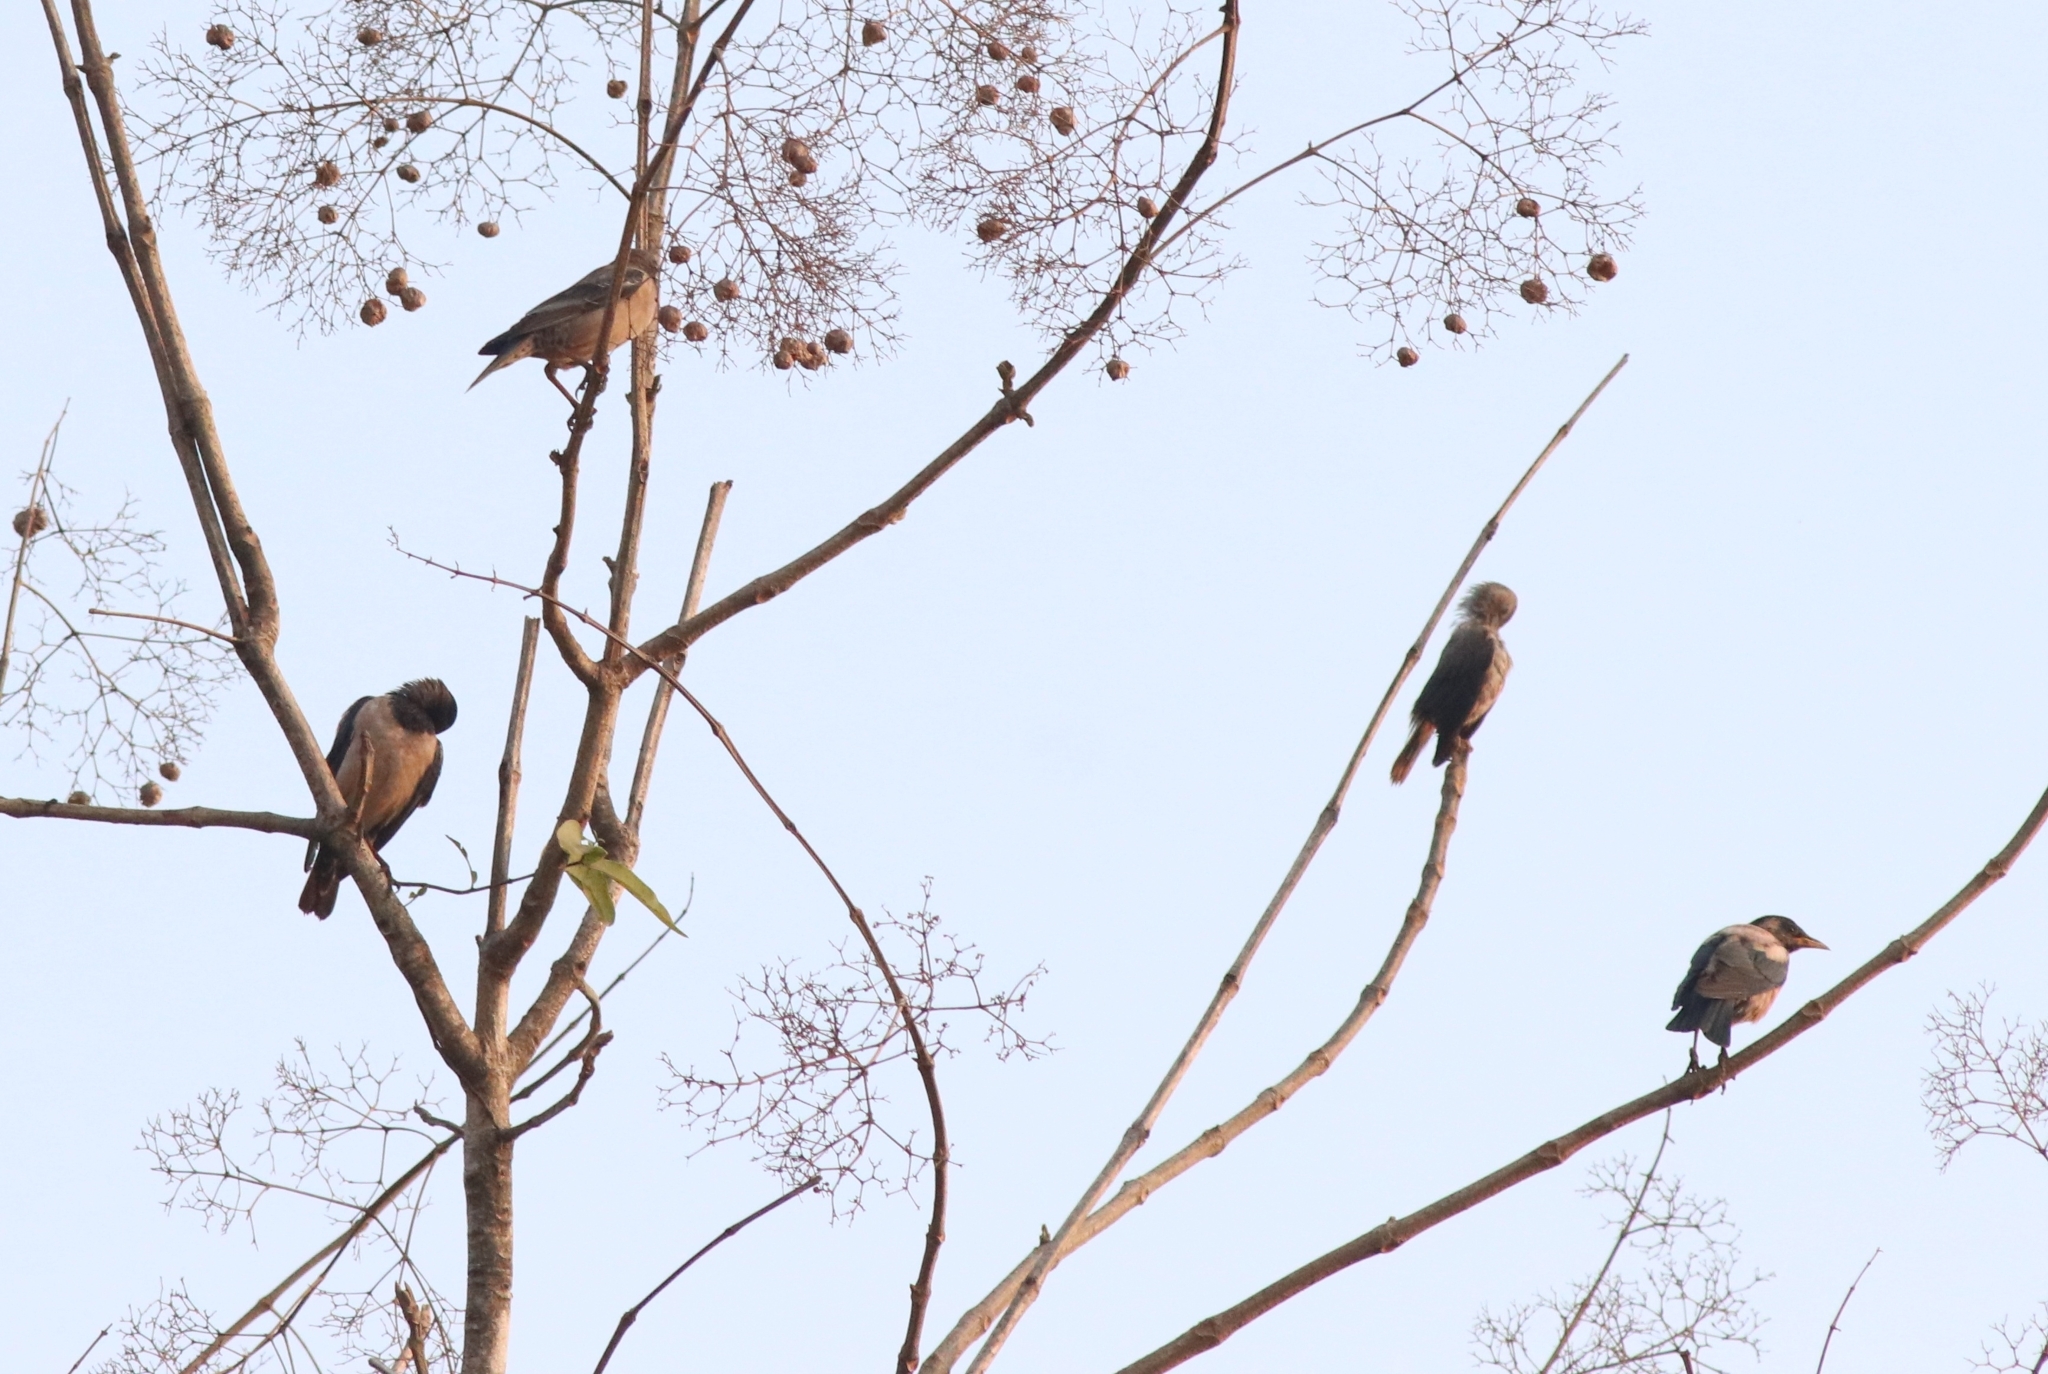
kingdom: Animalia
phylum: Chordata
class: Aves
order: Passeriformes
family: Sturnidae
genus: Pastor
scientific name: Pastor roseus
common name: Rosy starling
